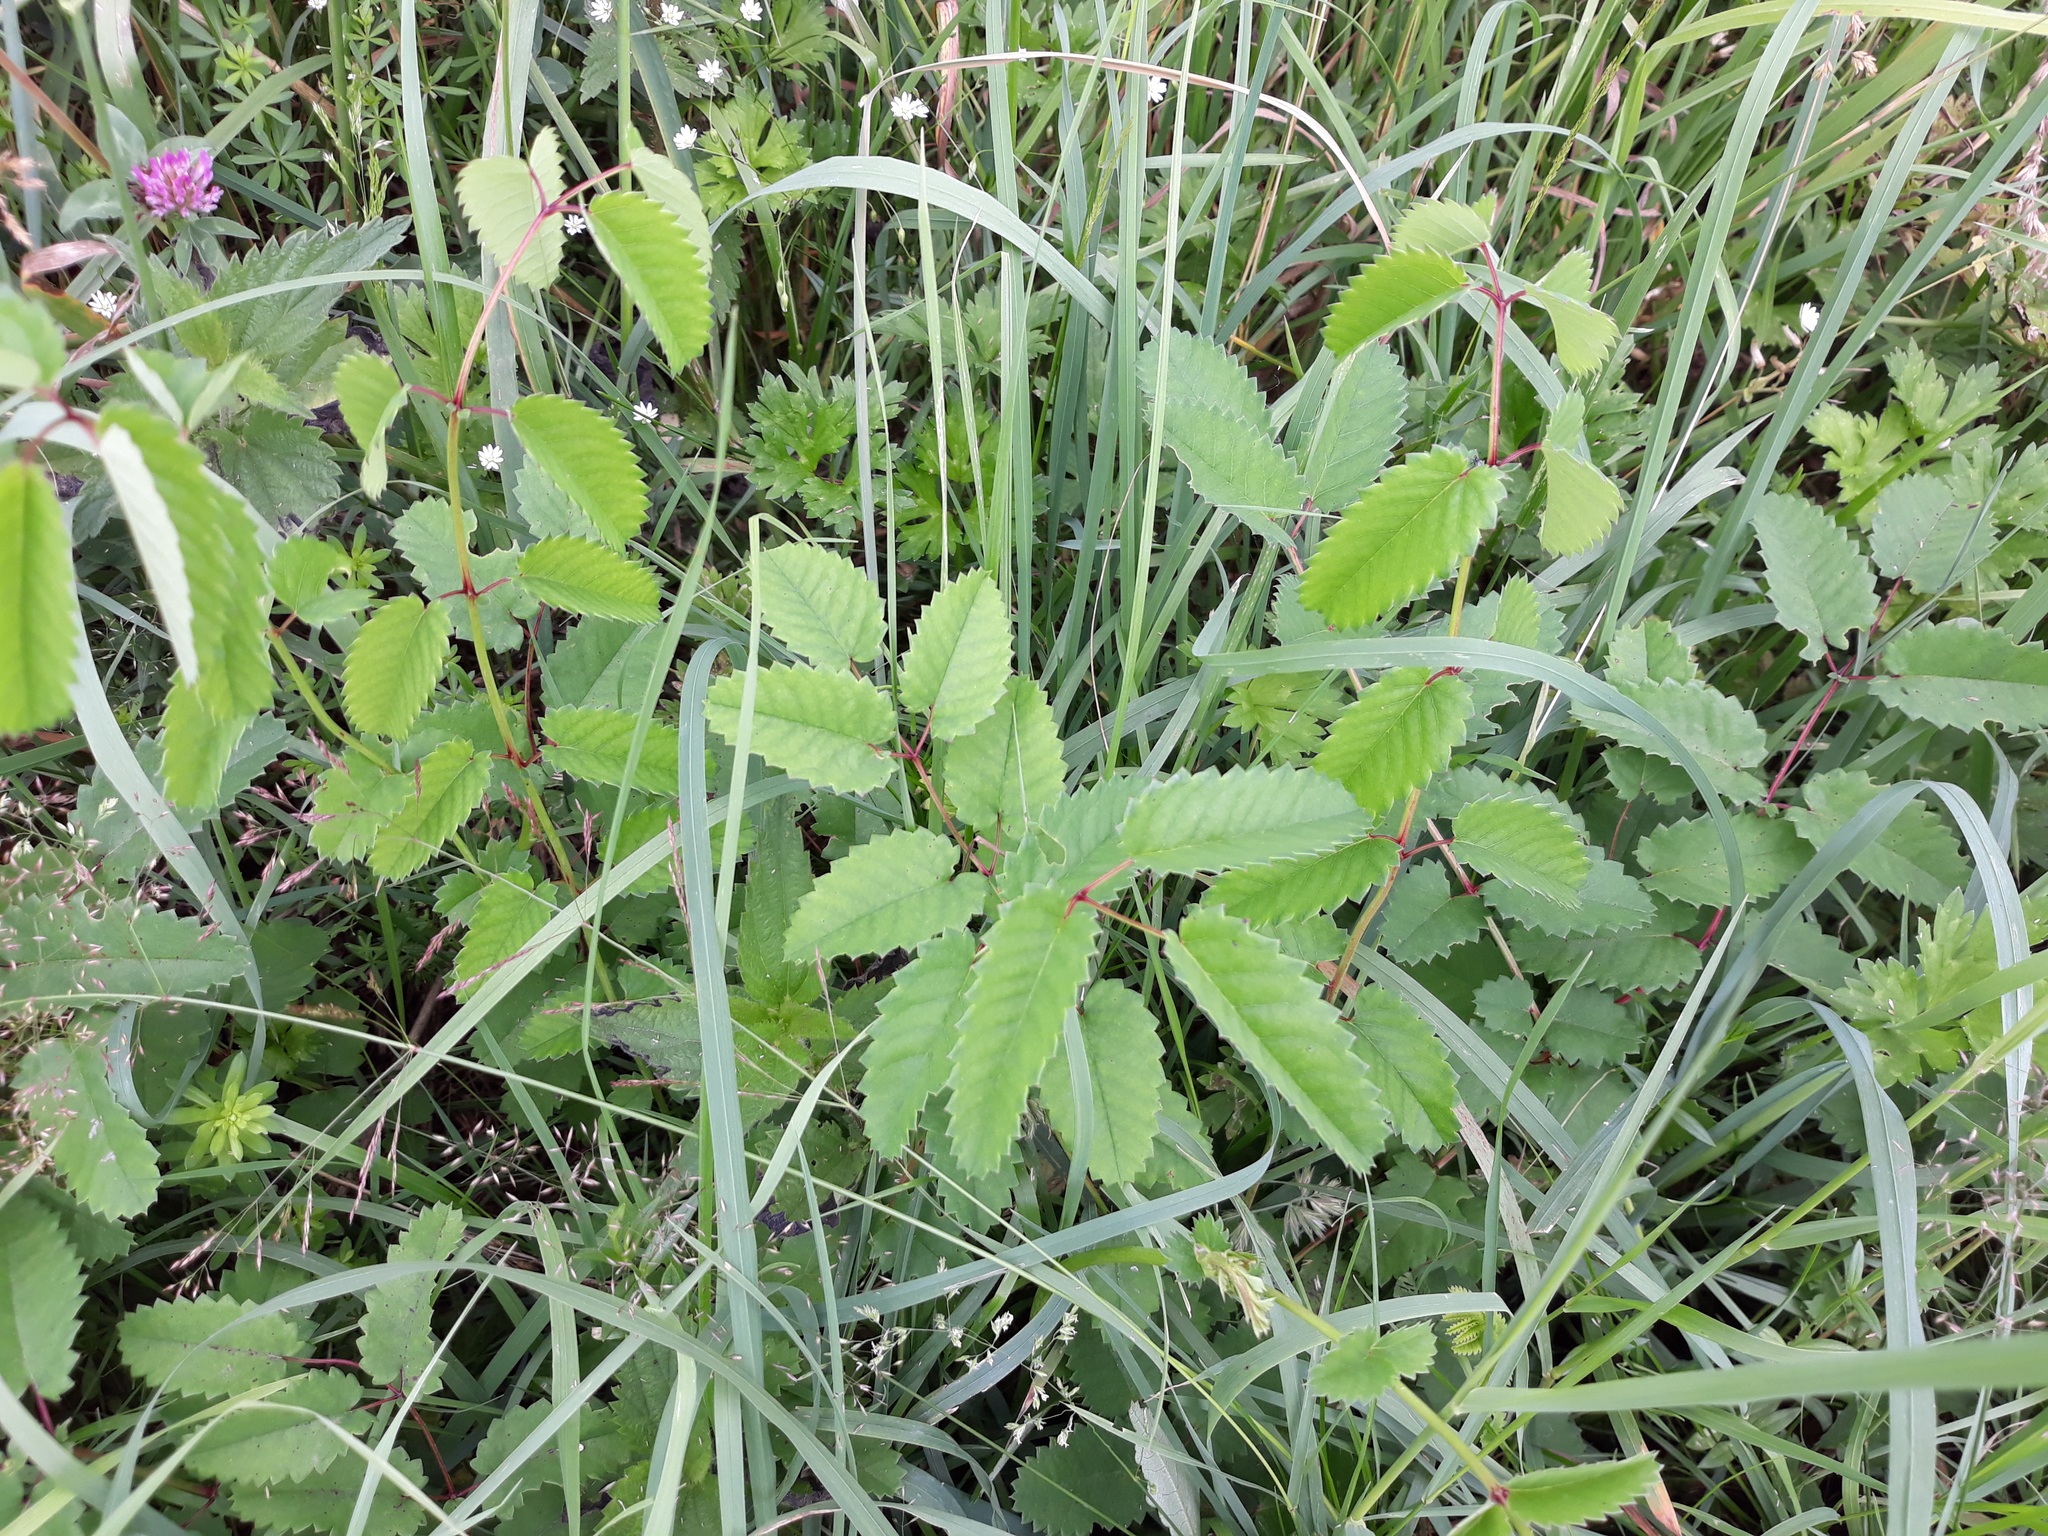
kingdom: Plantae
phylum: Tracheophyta
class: Magnoliopsida
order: Rosales
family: Rosaceae
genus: Sanguisorba
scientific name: Sanguisorba officinalis
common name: Great burnet
